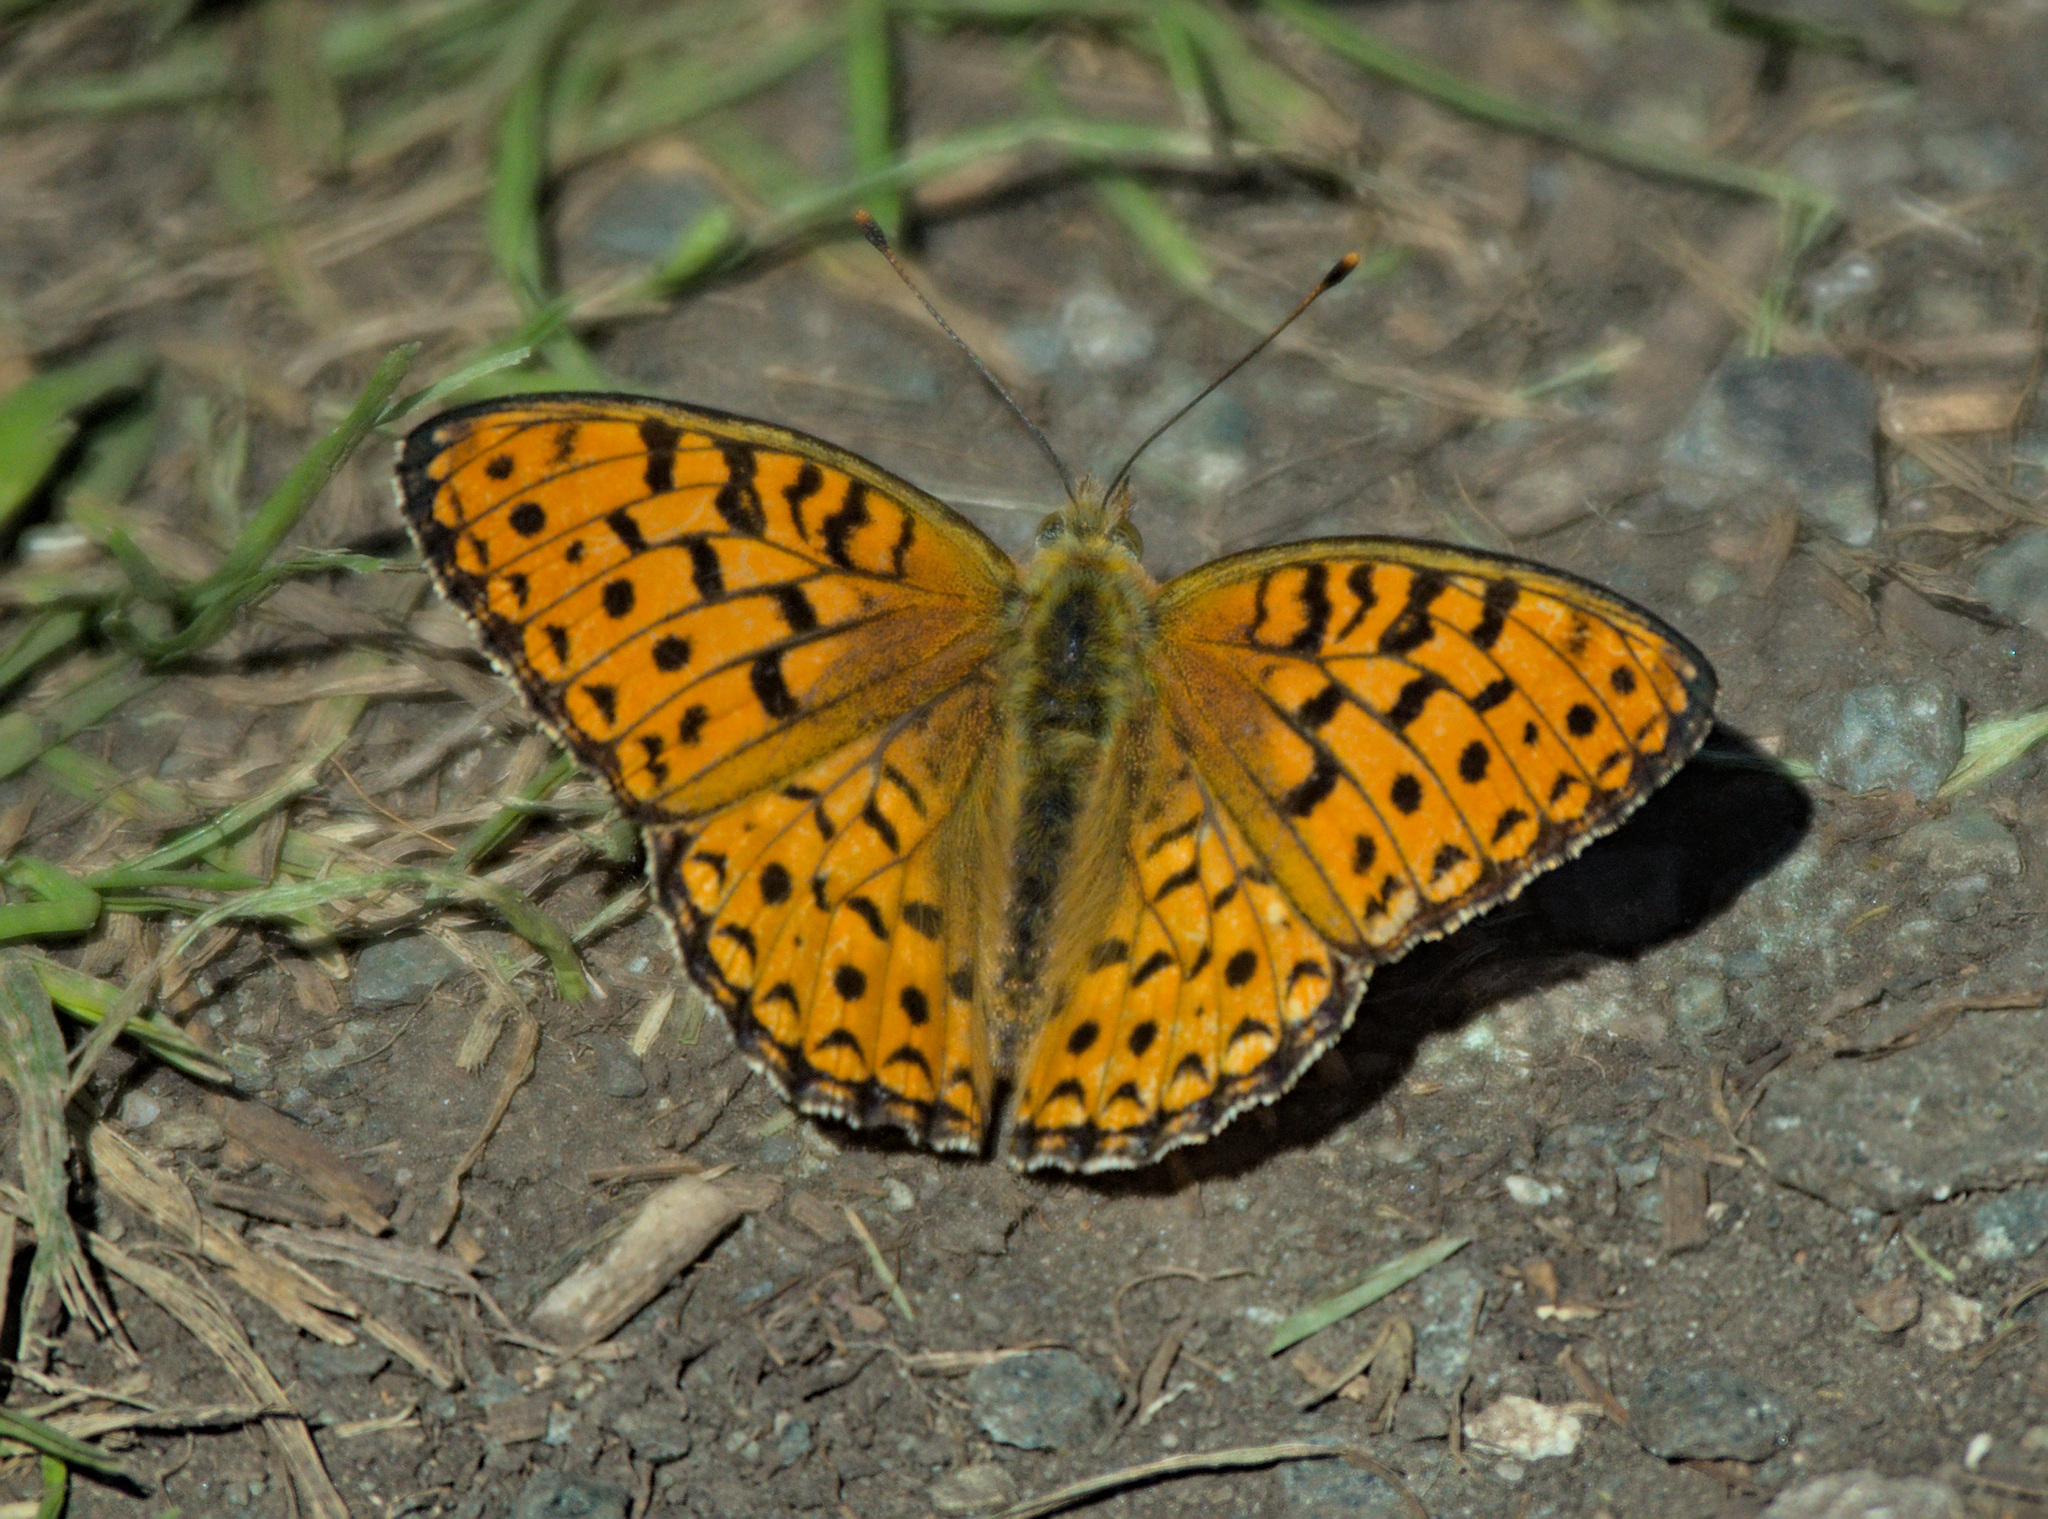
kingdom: Animalia
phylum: Arthropoda
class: Insecta
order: Lepidoptera
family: Nymphalidae
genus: Fabriciana
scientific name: Fabriciana niobe
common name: Niobe fritillary
